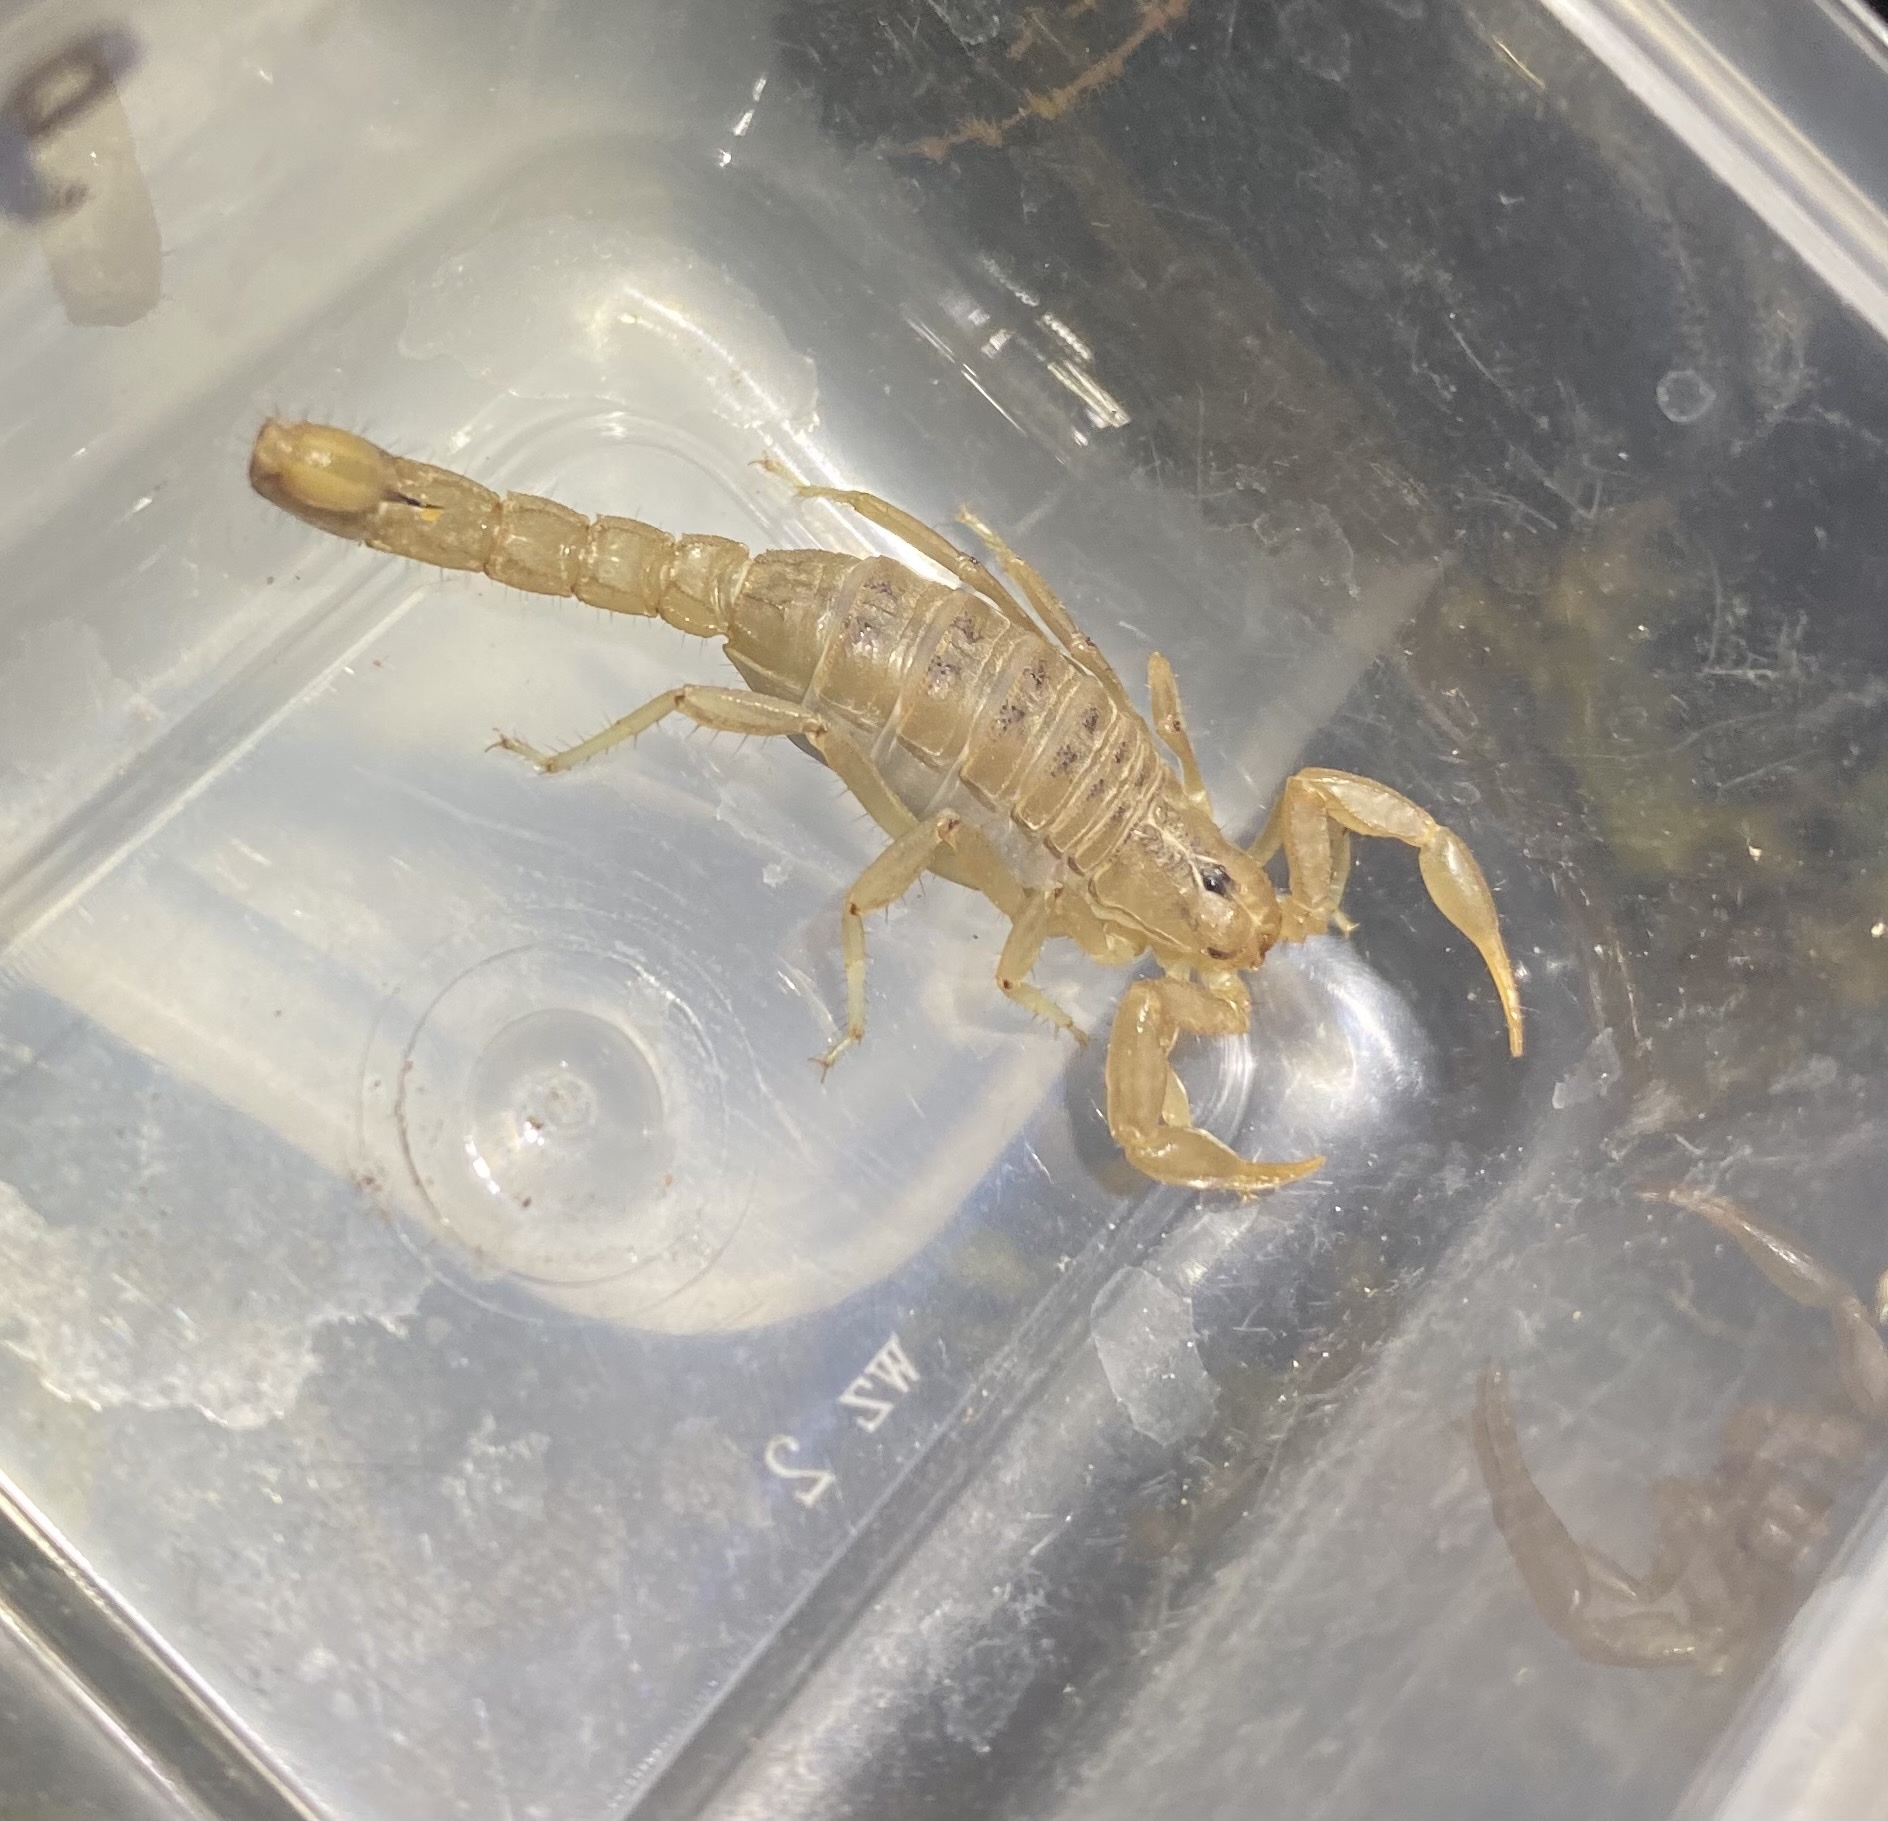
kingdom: Animalia
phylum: Arthropoda
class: Arachnida
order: Scorpiones
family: Vaejovidae
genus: Paravaejovis
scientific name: Paravaejovis spinigerus
